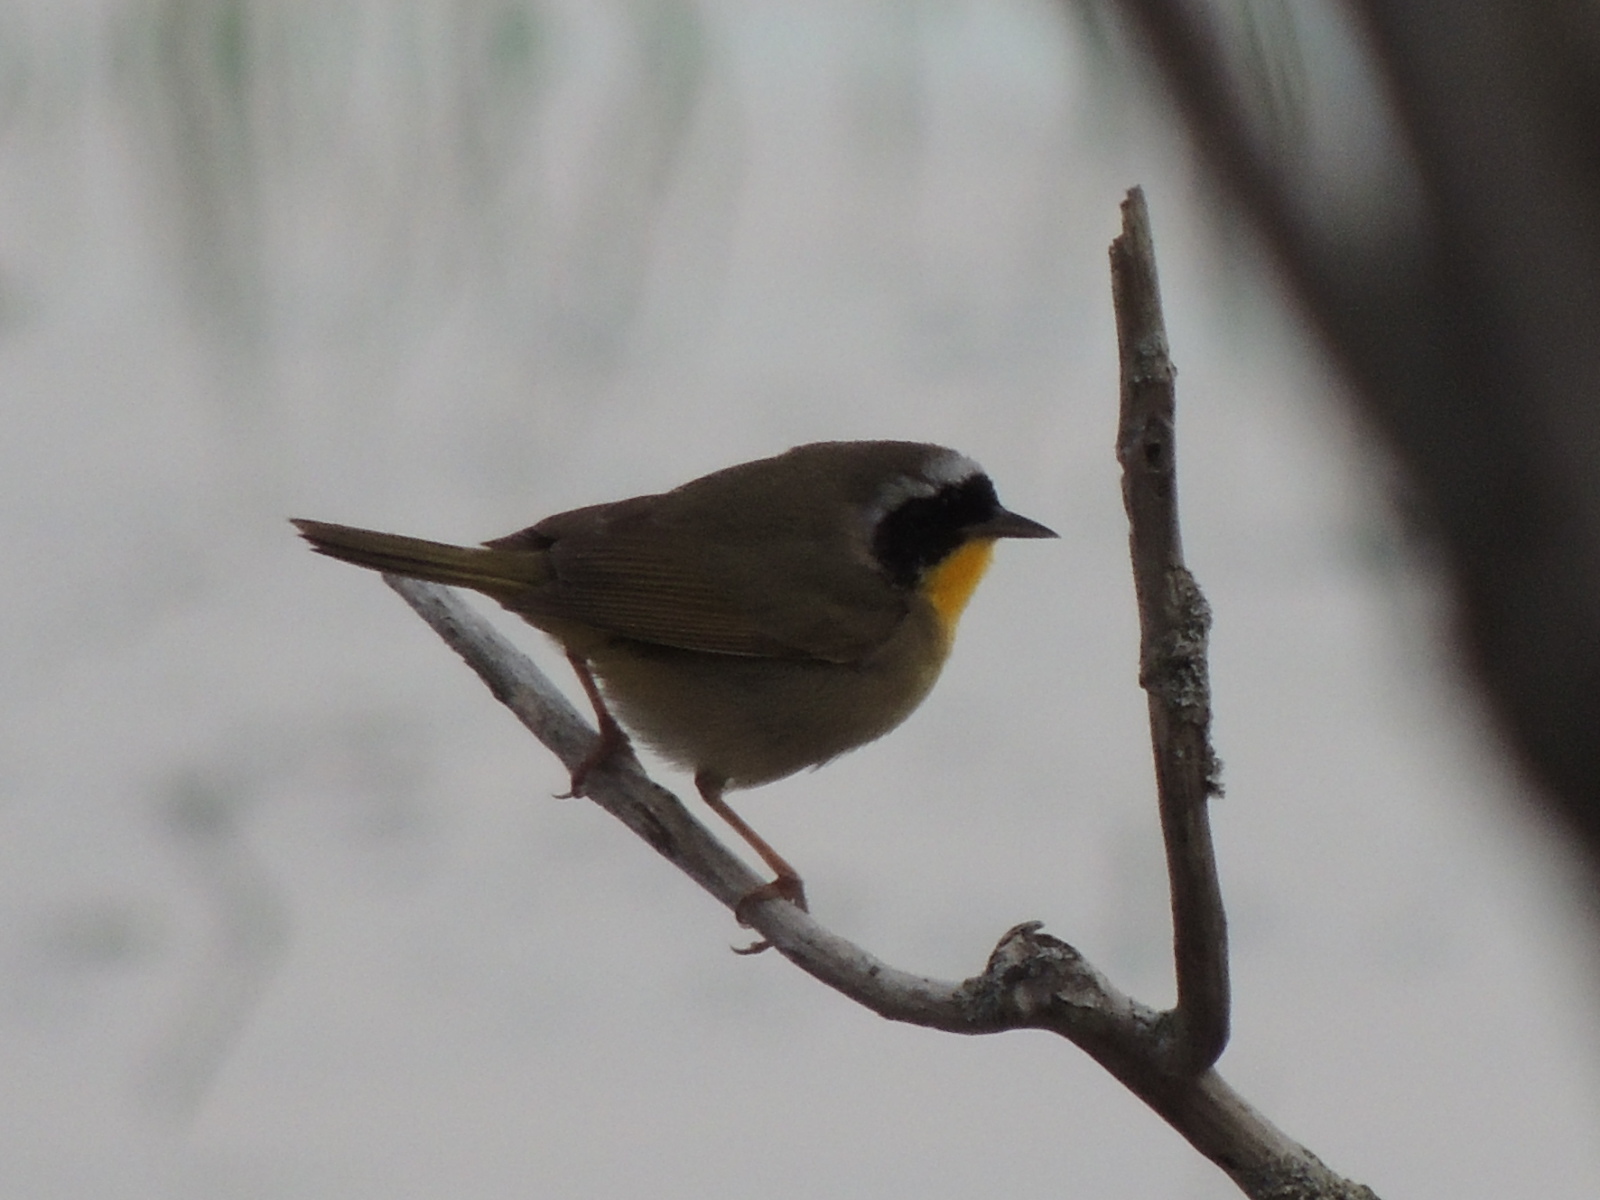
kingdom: Animalia
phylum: Chordata
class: Aves
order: Passeriformes
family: Parulidae
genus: Geothlypis
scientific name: Geothlypis trichas
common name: Common yellowthroat
